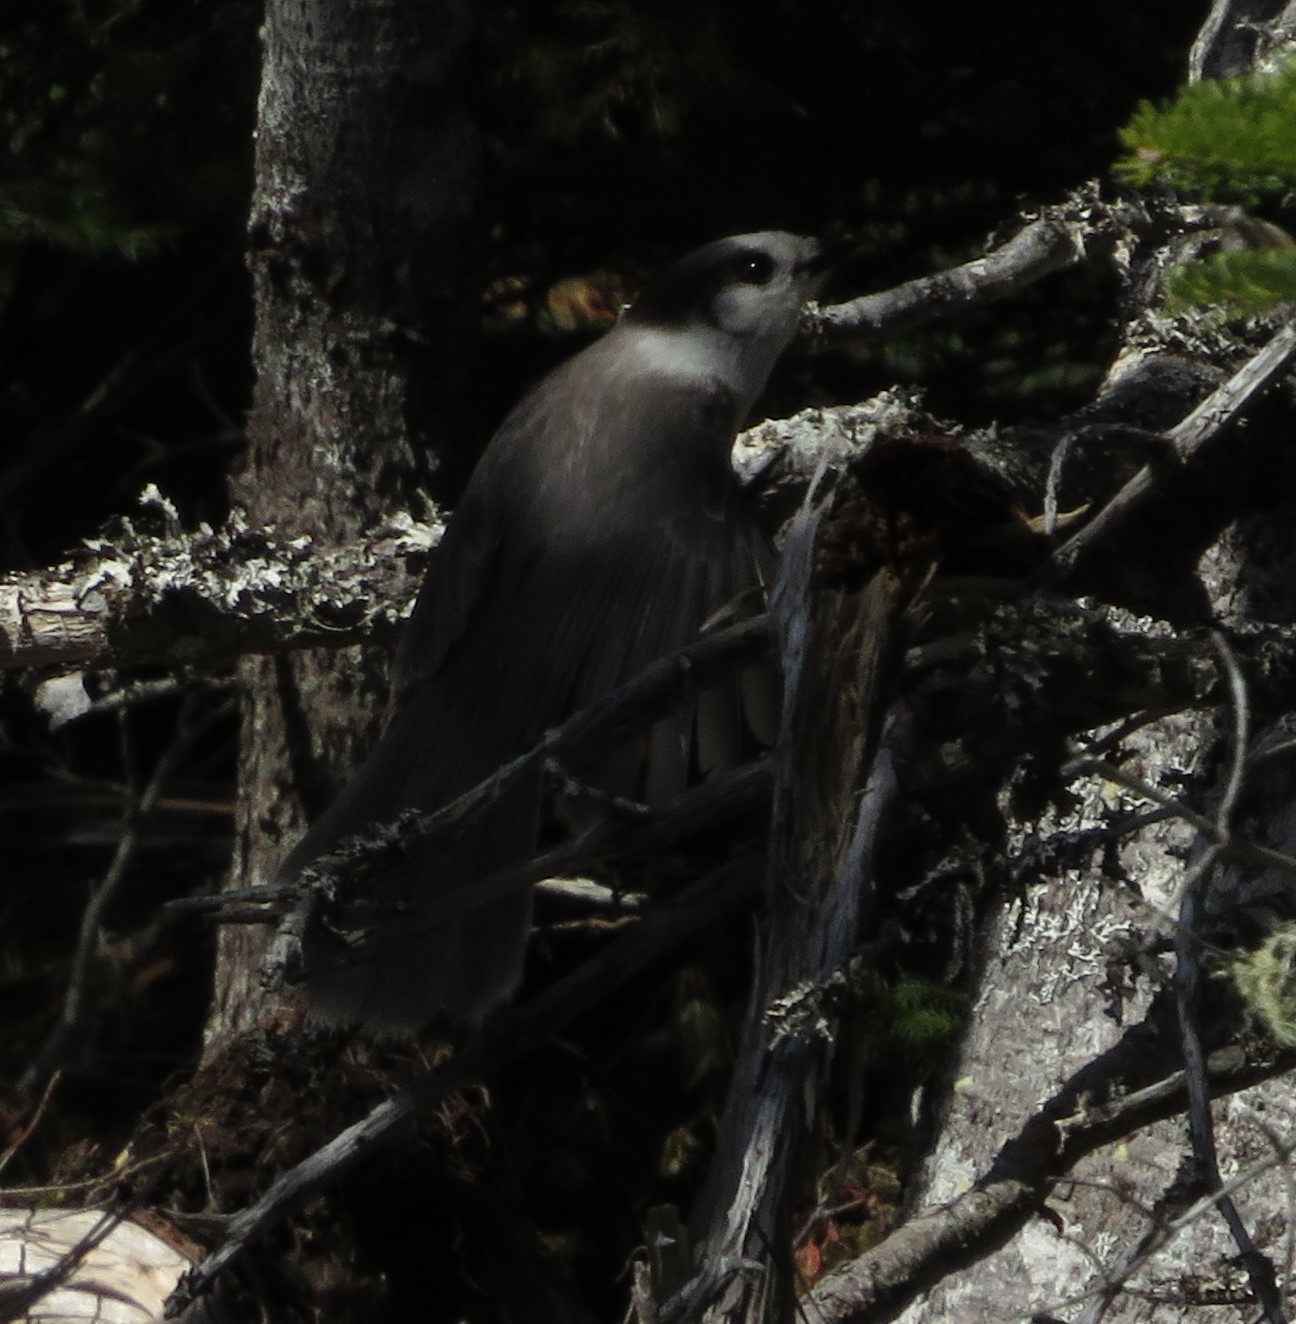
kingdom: Animalia
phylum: Chordata
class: Aves
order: Passeriformes
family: Corvidae
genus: Perisoreus
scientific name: Perisoreus canadensis
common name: Gray jay
